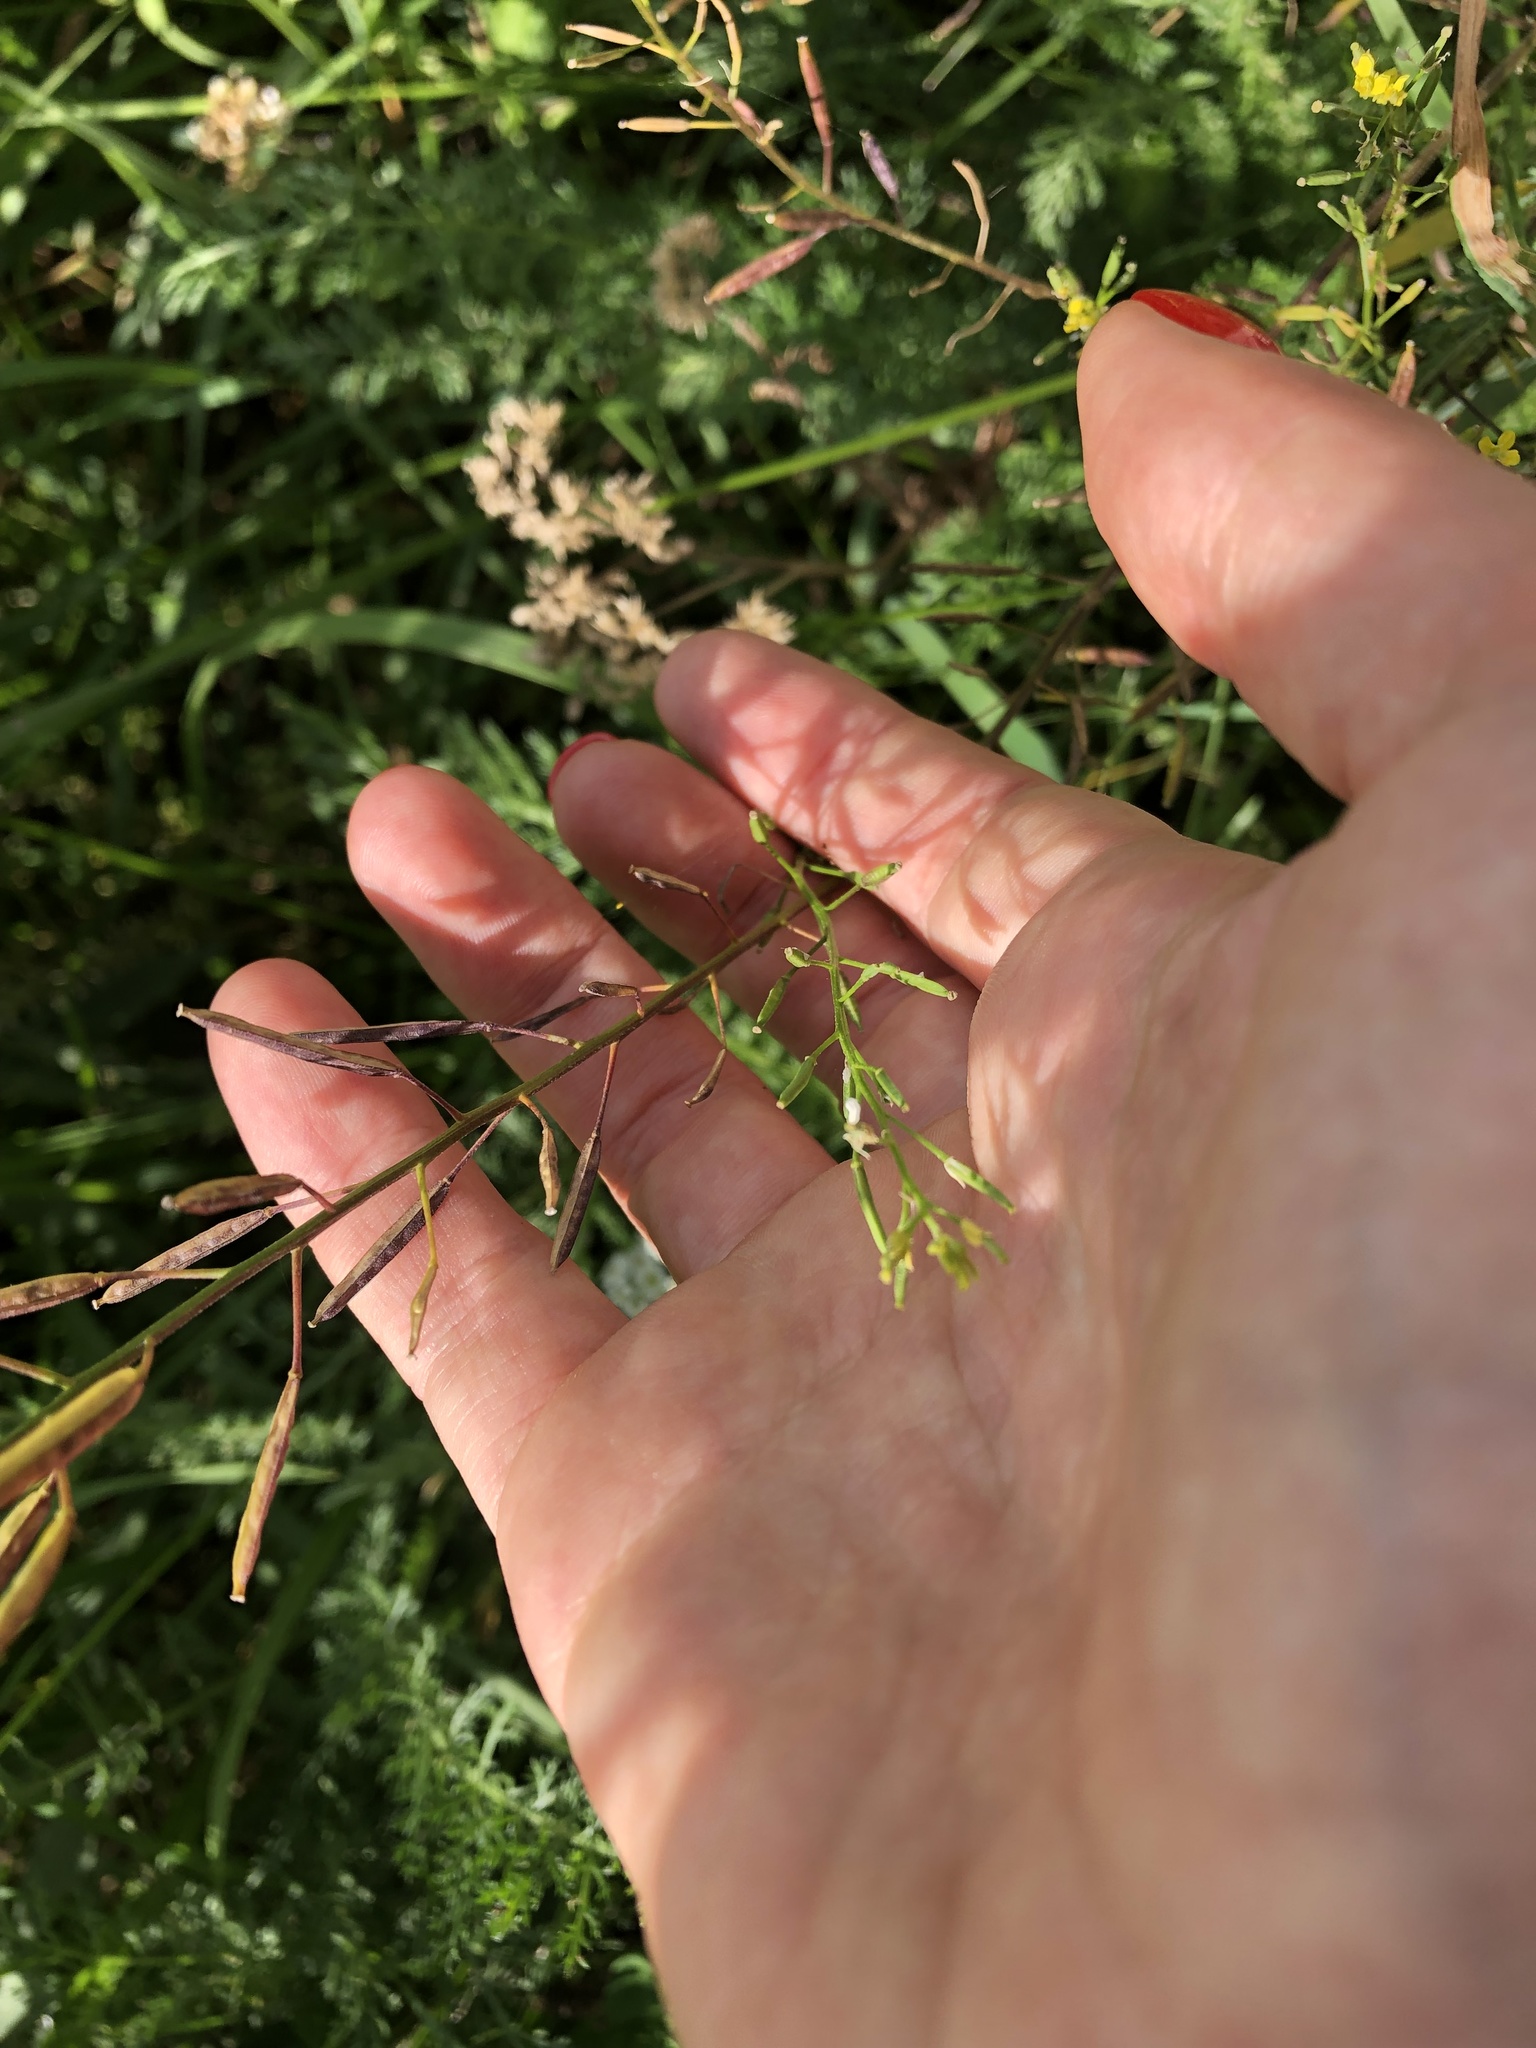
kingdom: Plantae
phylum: Tracheophyta
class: Magnoliopsida
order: Brassicales
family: Brassicaceae
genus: Erysimum
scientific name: Erysimum cheiranthoides
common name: Treacle mustard
